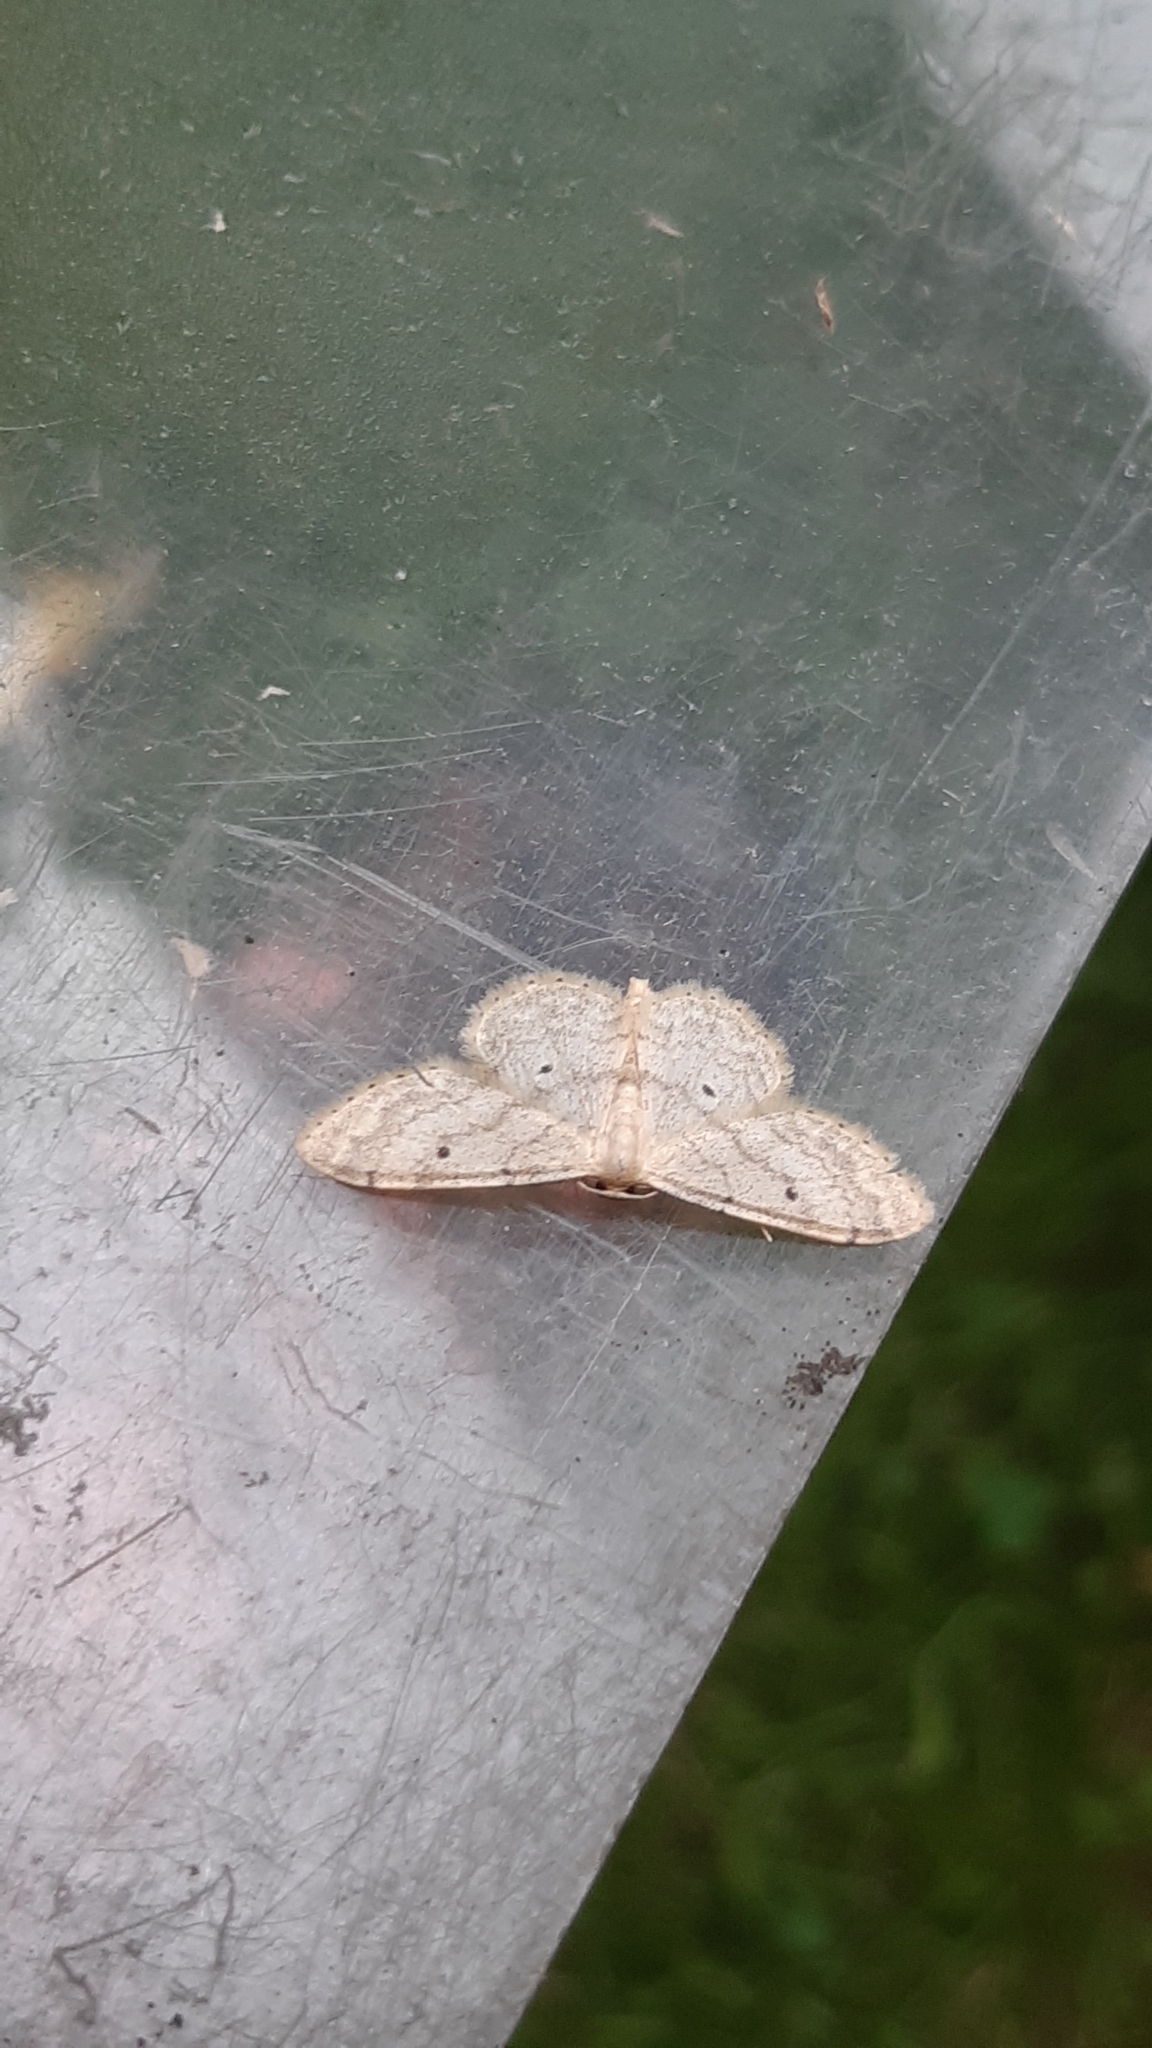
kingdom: Animalia
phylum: Arthropoda
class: Insecta
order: Lepidoptera
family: Geometridae
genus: Idaea
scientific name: Idaea biselata
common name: Small fan-footed wave
